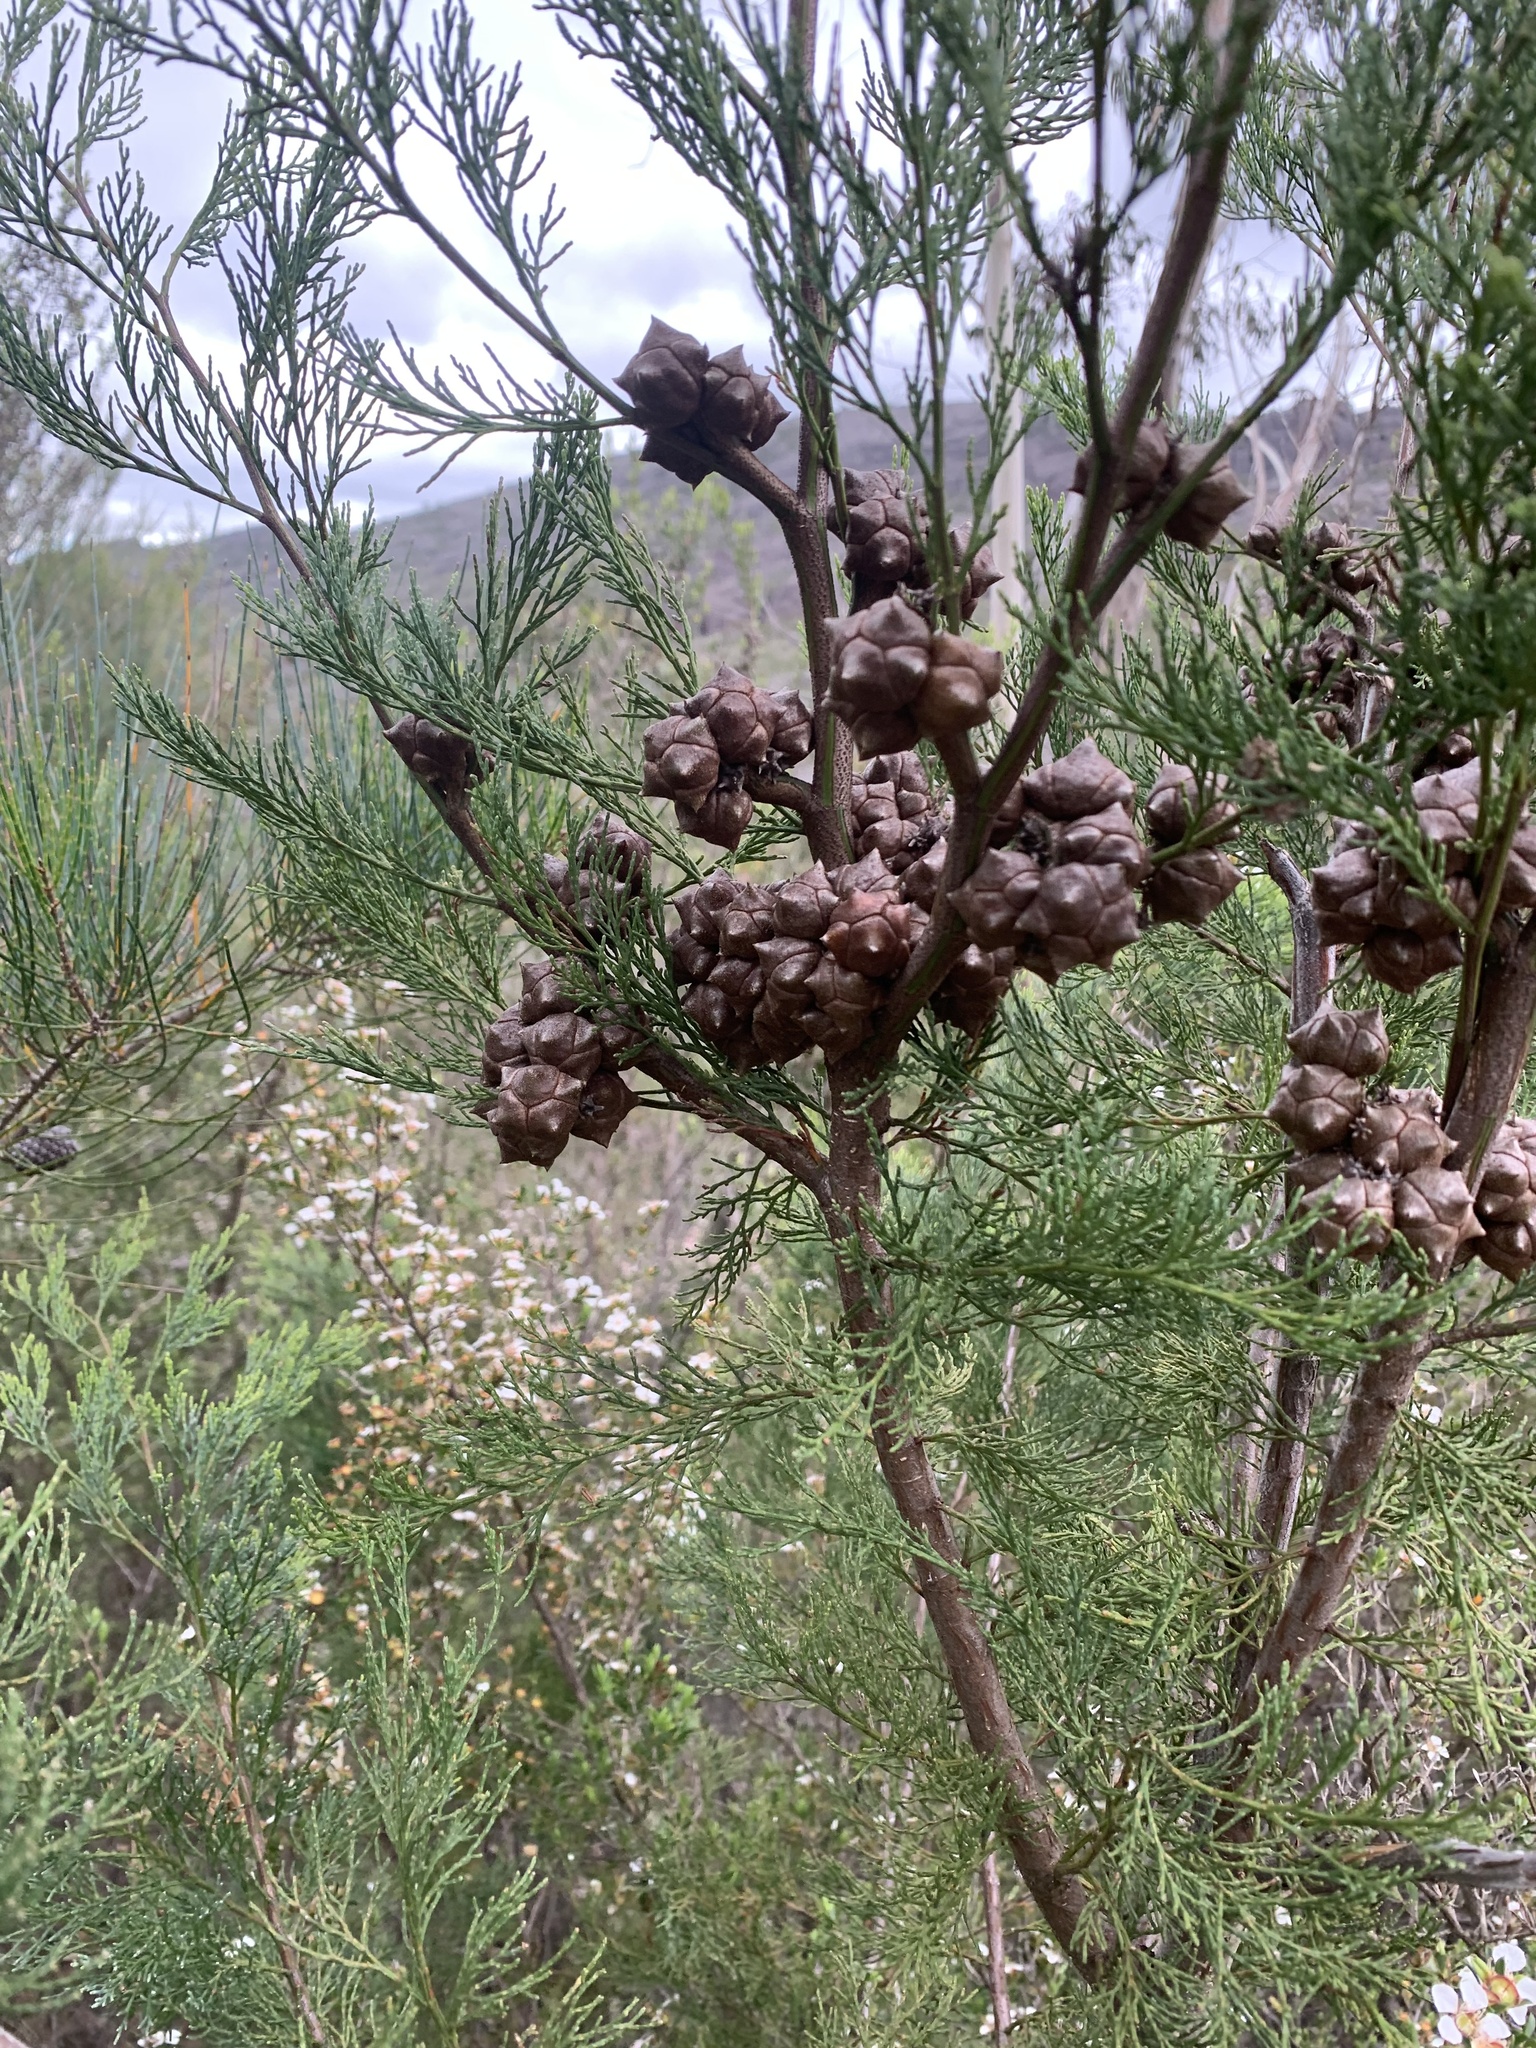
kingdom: Plantae
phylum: Tracheophyta
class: Pinopsida
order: Pinales
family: Cupressaceae
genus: Callitris
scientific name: Callitris rhomboidea
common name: Illawara mountain pine
